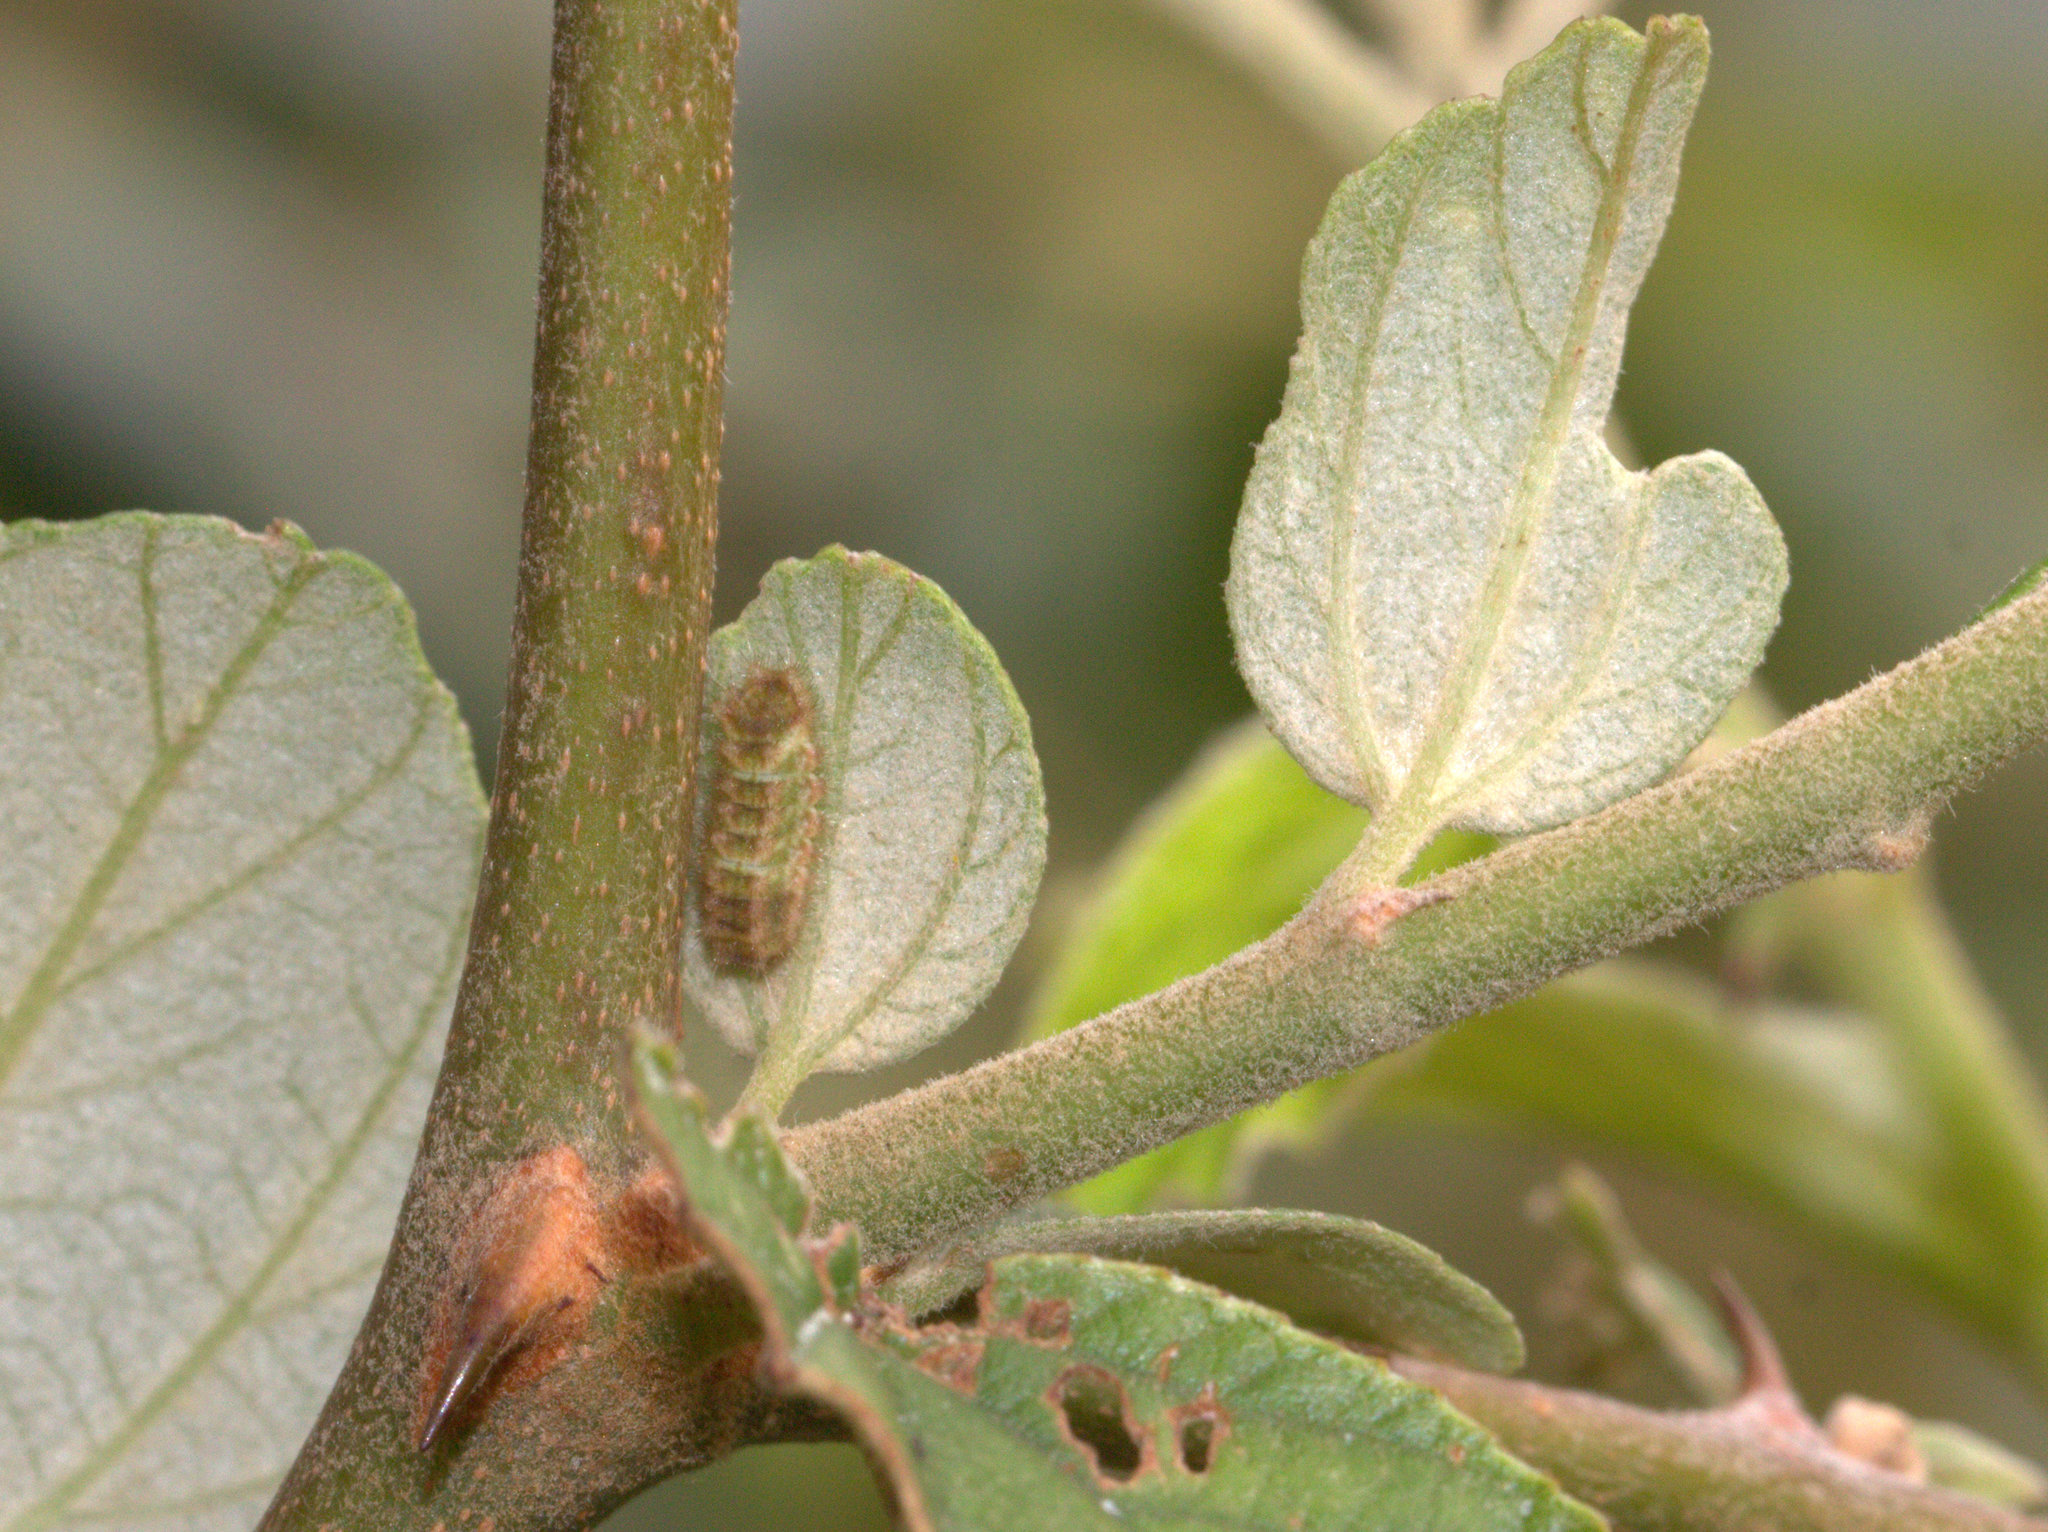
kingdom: Animalia
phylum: Arthropoda
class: Insecta
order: Lepidoptera
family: Lycaenidae
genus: Rapala
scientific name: Rapala manea
